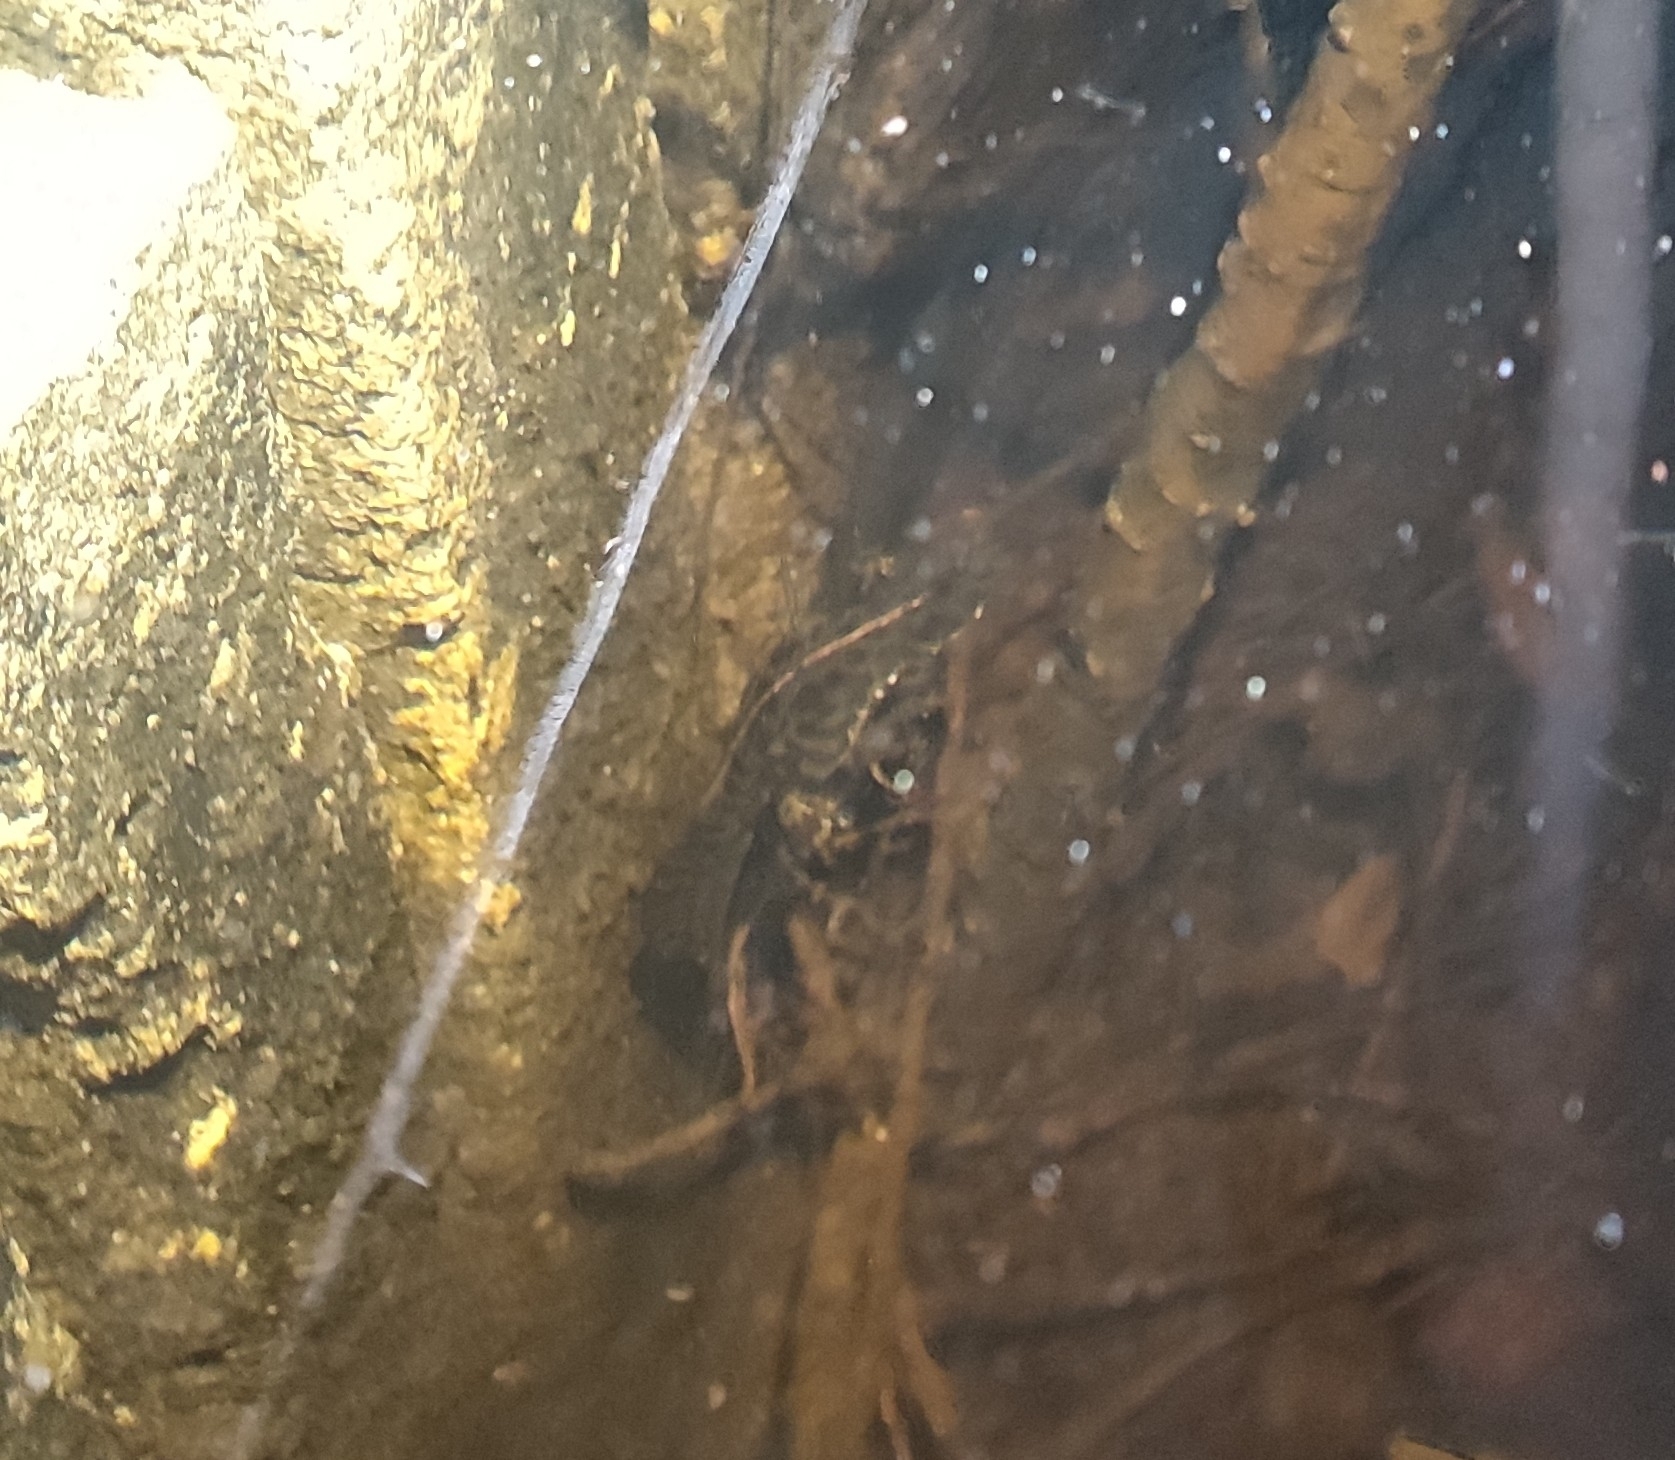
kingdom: Animalia
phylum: Chordata
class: Amphibia
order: Caudata
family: Salamandridae
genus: Triturus
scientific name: Triturus marmoratus
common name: Marbled newt
